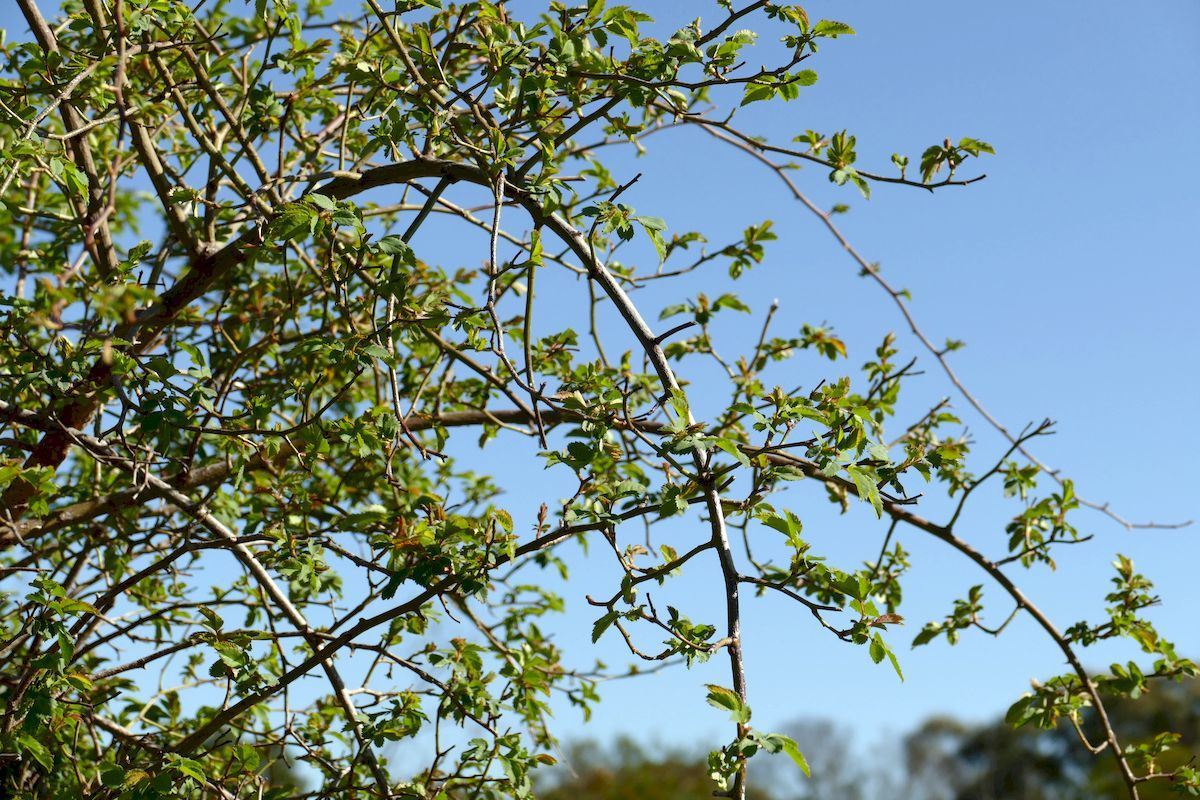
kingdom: Plantae
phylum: Tracheophyta
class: Magnoliopsida
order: Rosales
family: Rosaceae
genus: Rosa
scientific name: Rosa canina
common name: Dog rose
